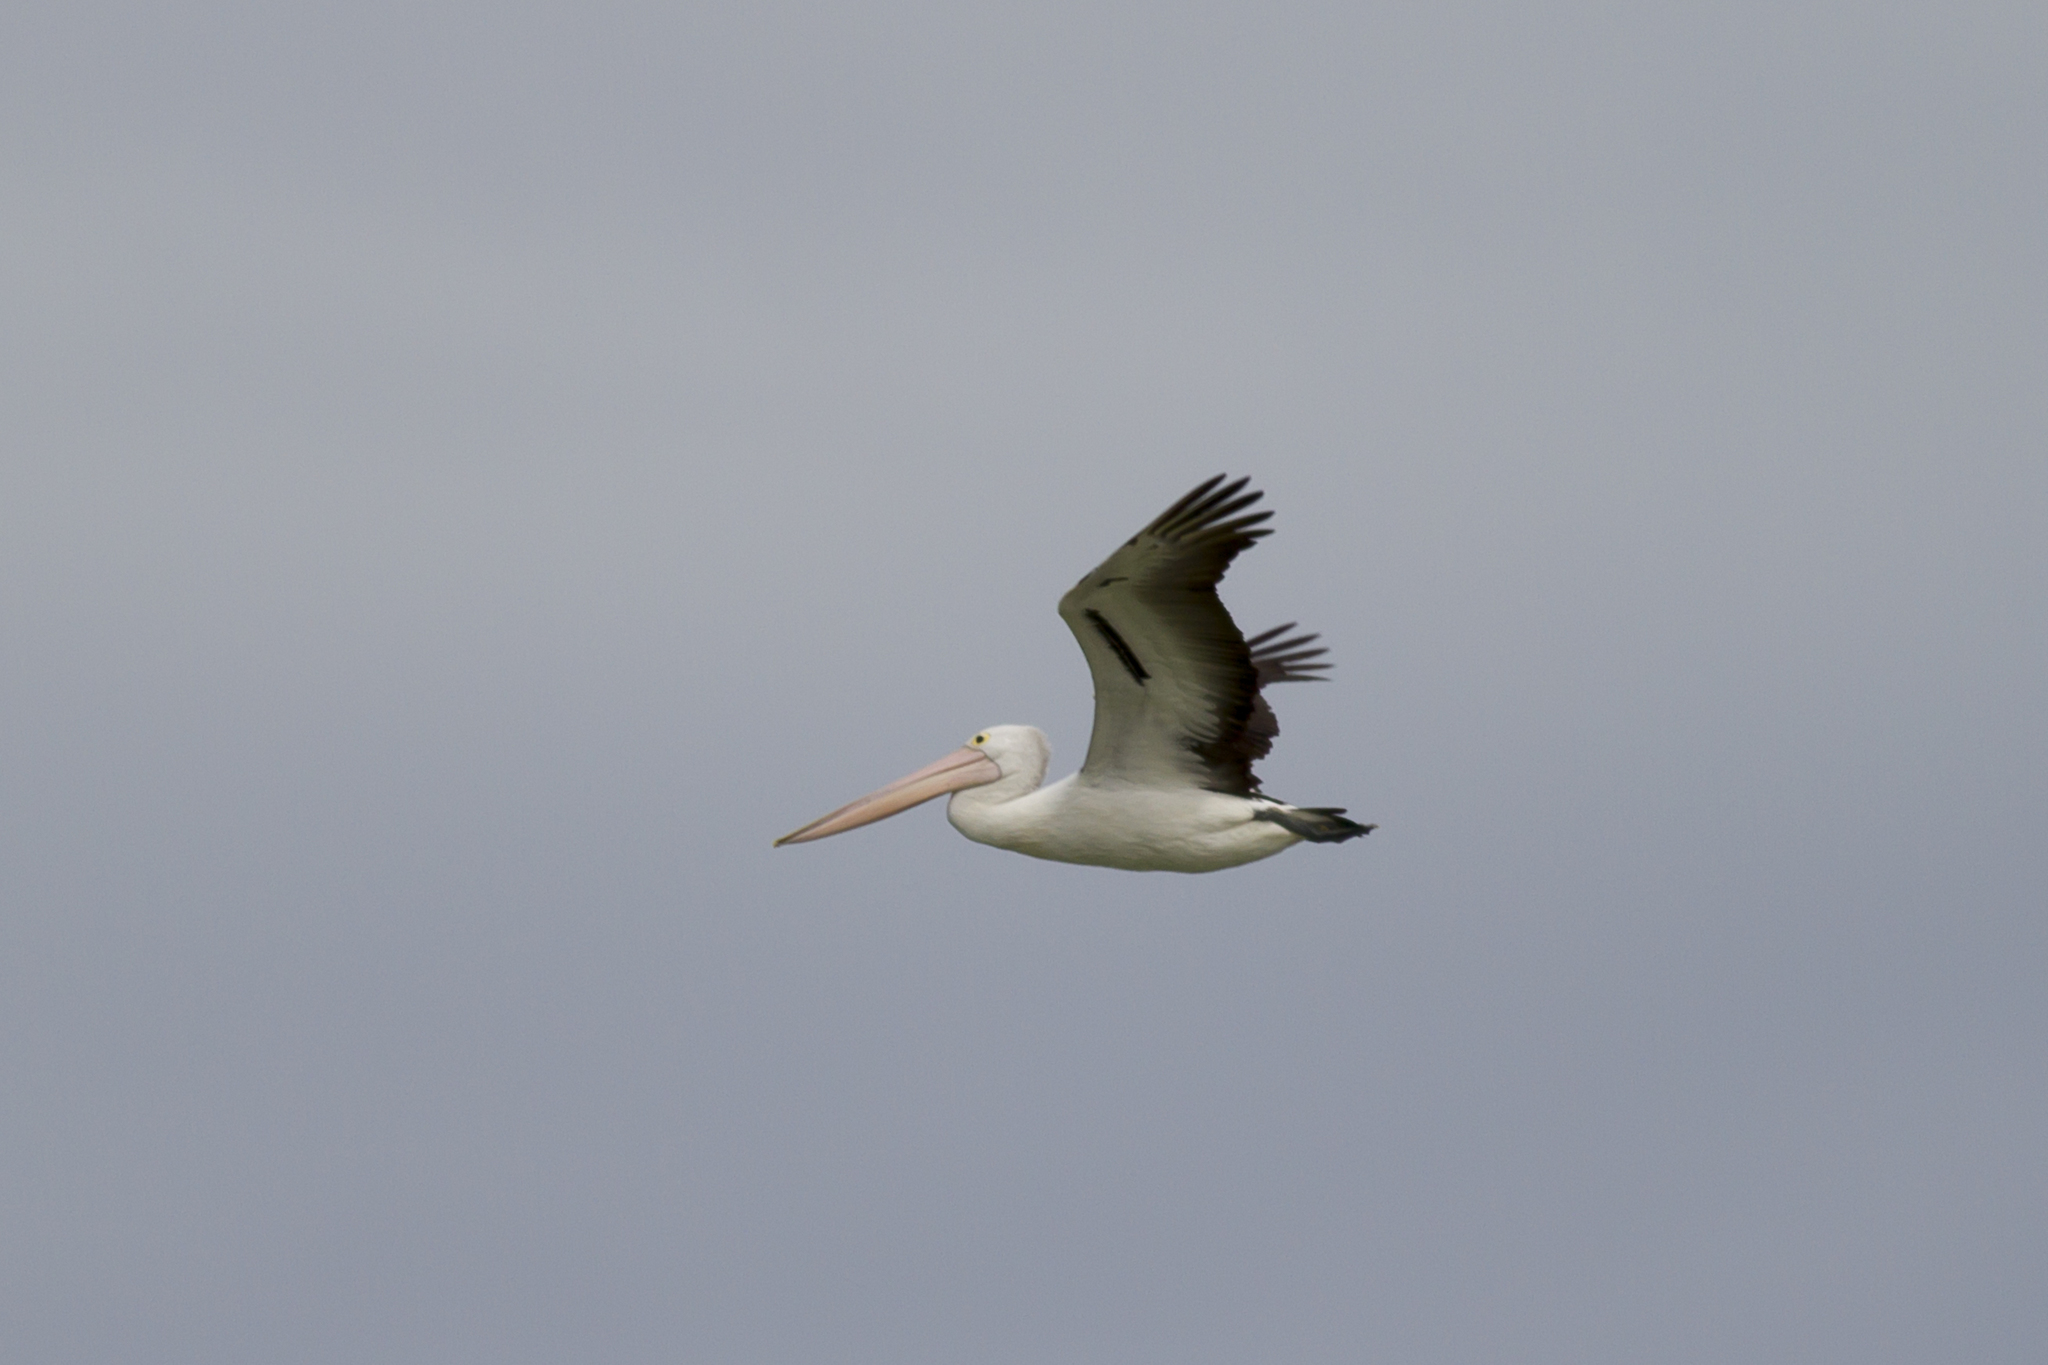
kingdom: Animalia
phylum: Chordata
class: Aves
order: Pelecaniformes
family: Pelecanidae
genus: Pelecanus
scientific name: Pelecanus conspicillatus
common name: Australian pelican
